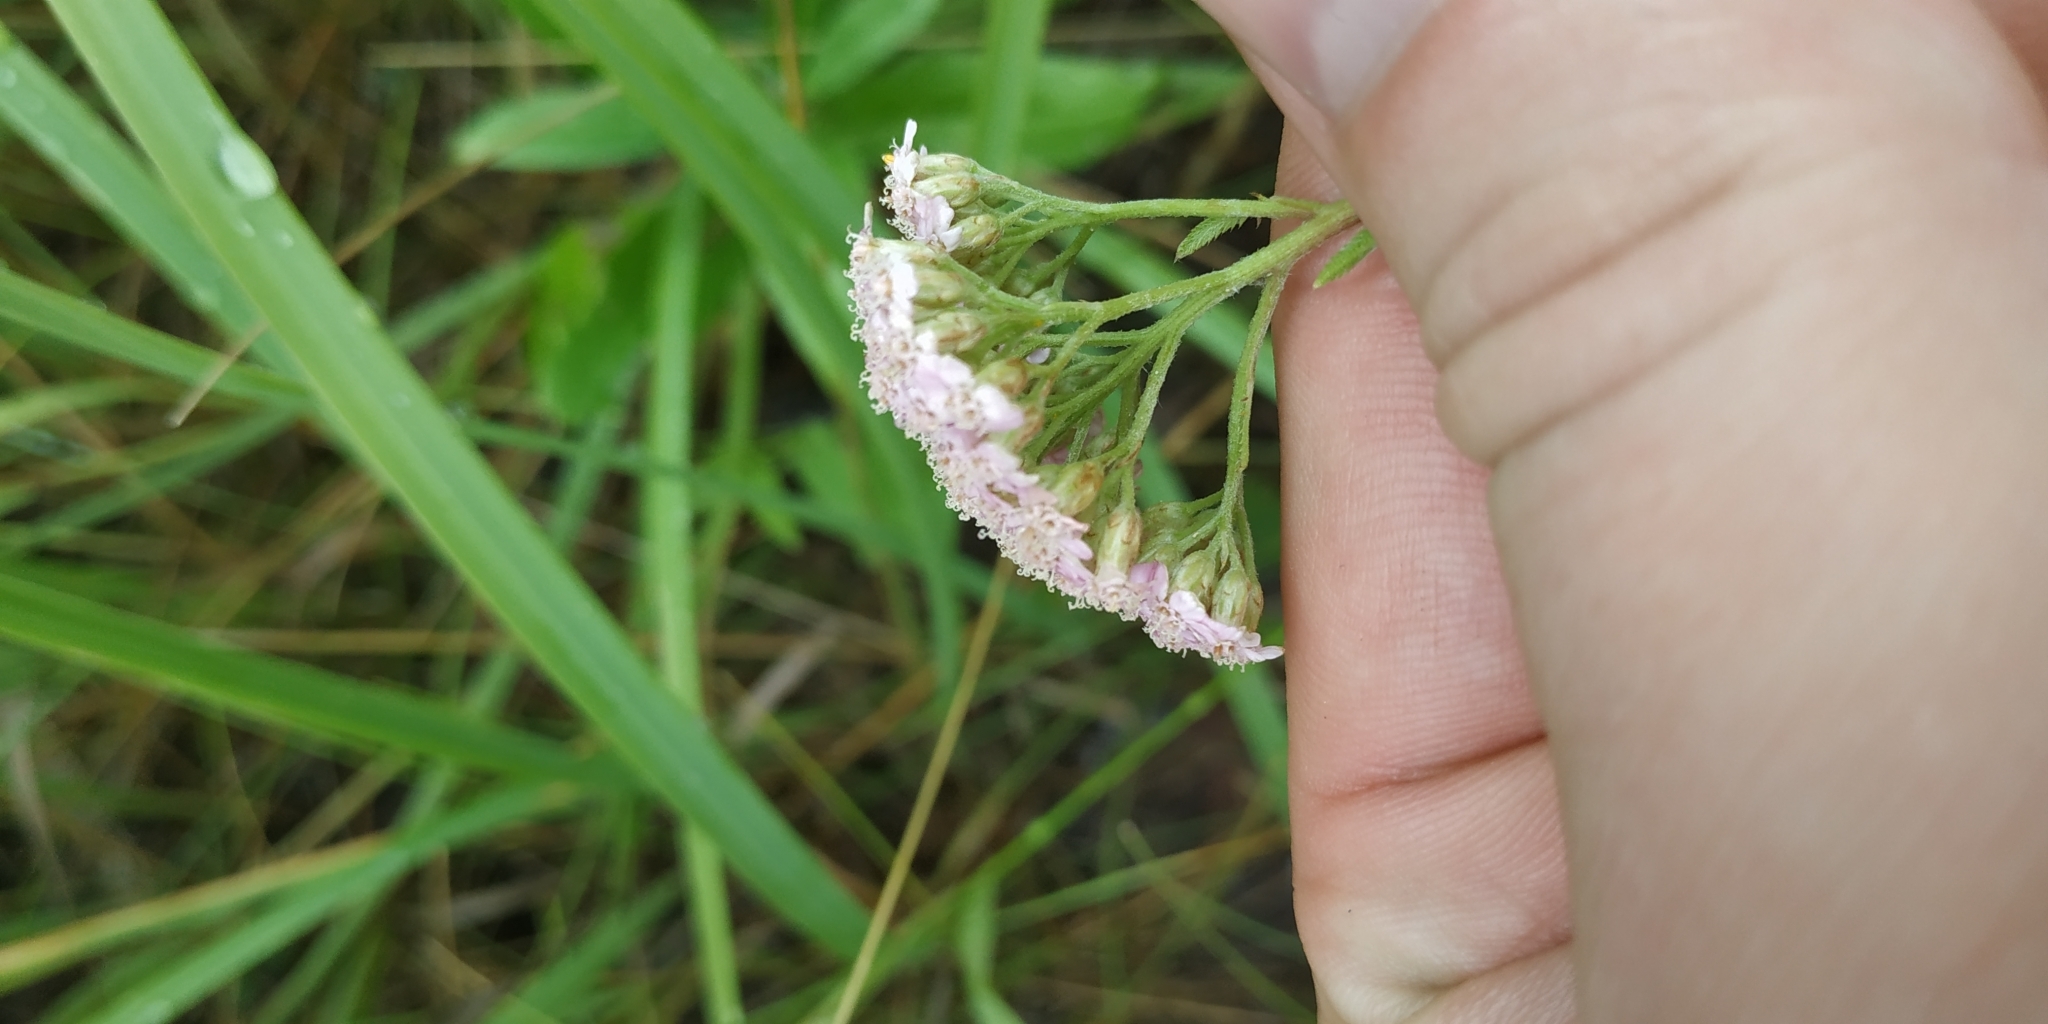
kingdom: Plantae
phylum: Tracheophyta
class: Magnoliopsida
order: Asterales
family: Asteraceae
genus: Achillea
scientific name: Achillea millefolium
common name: Yarrow
